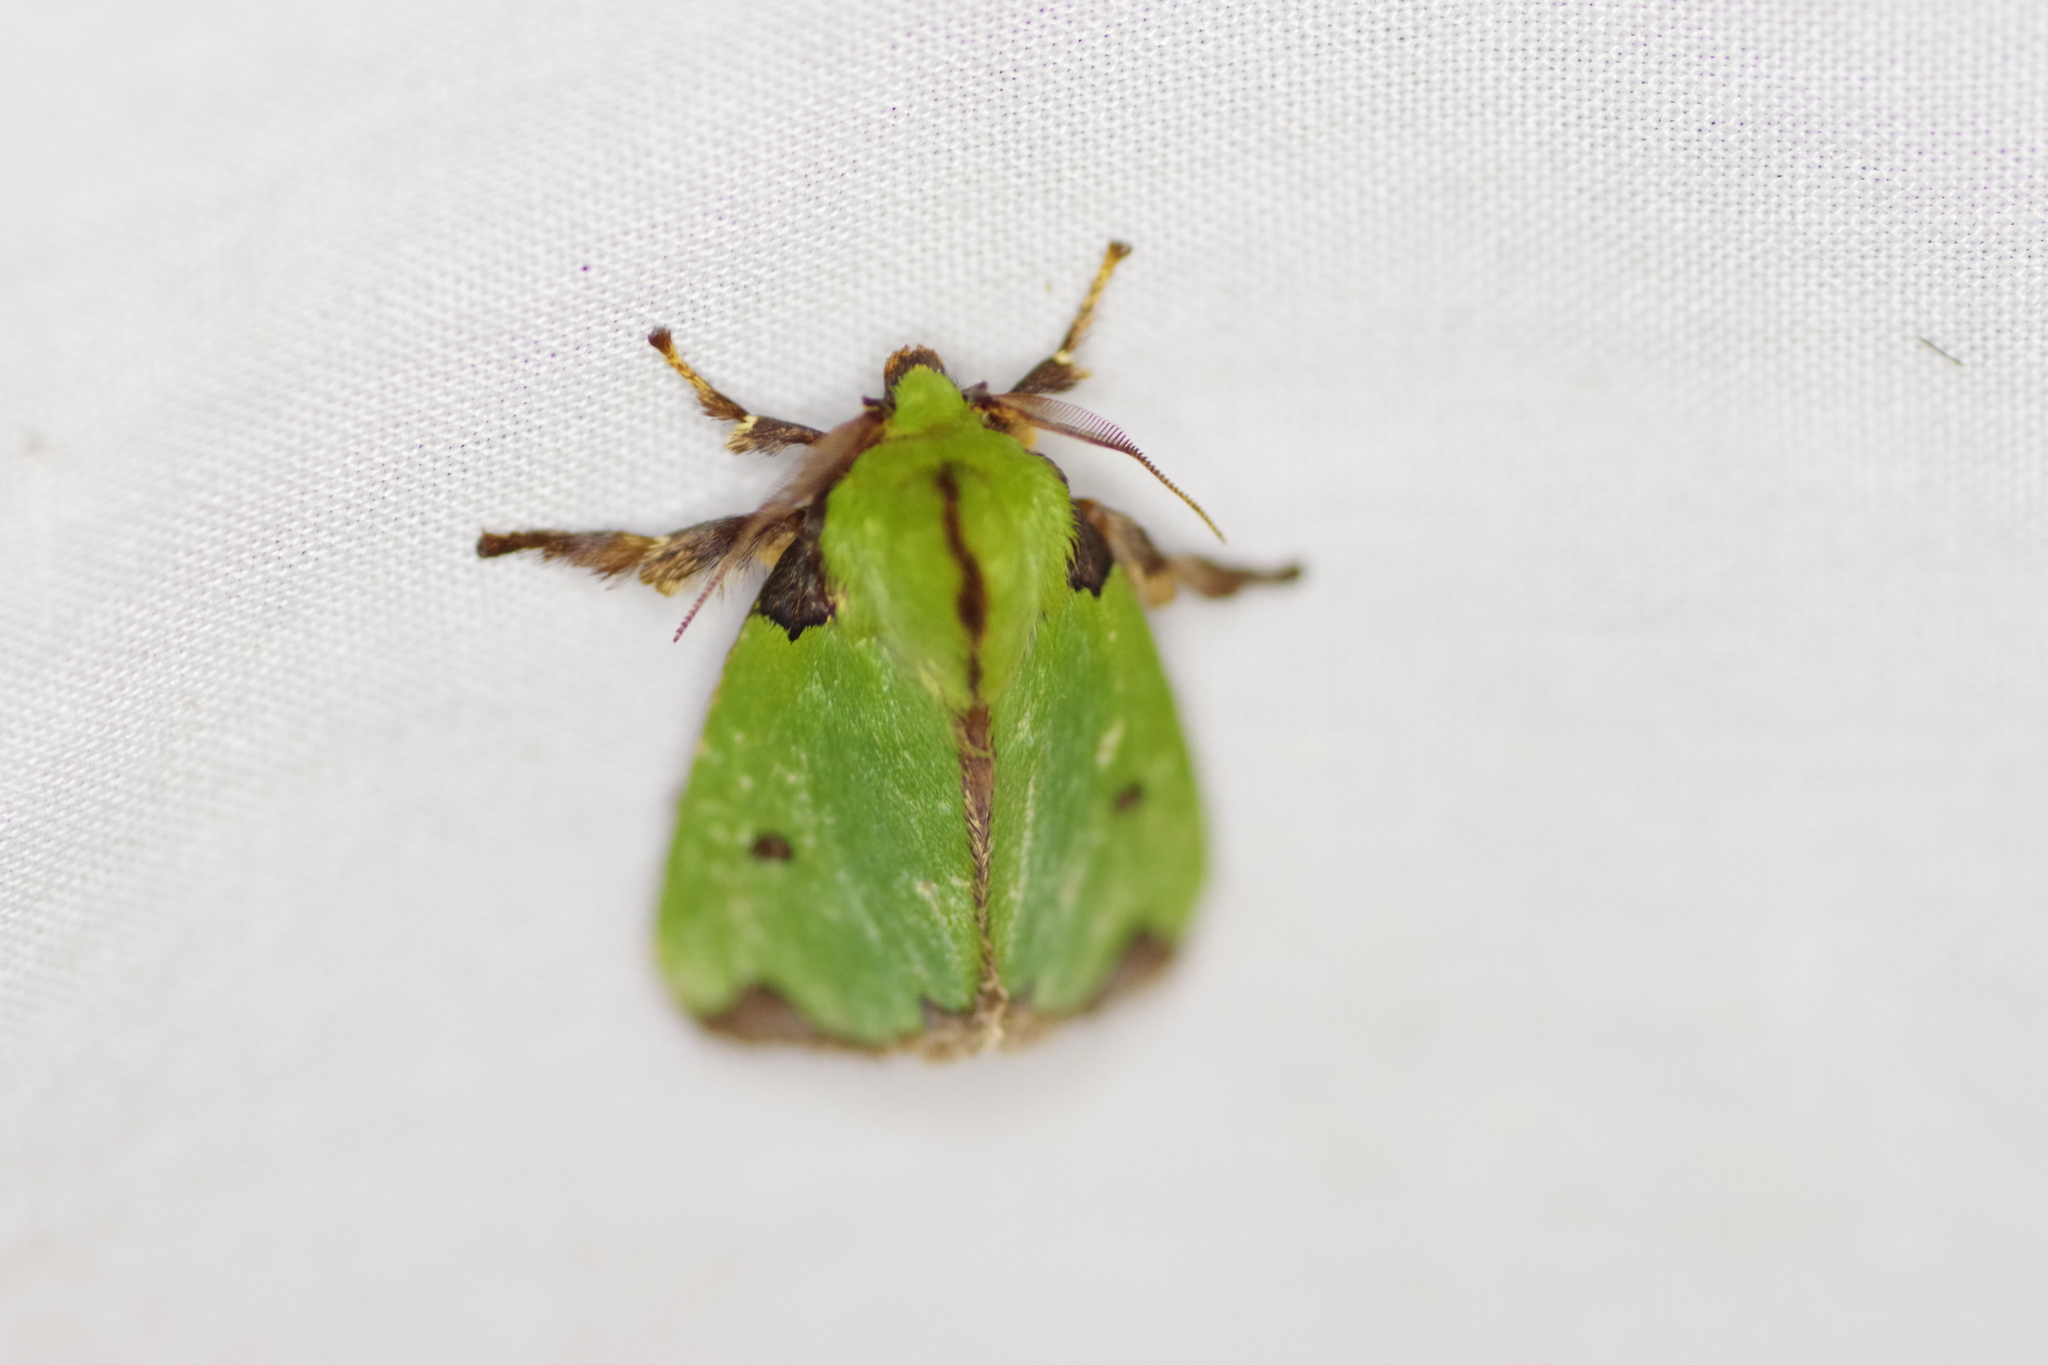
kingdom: Animalia
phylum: Arthropoda
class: Insecta
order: Lepidoptera
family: Limacodidae
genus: Parasa
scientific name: Parasa wellesca
